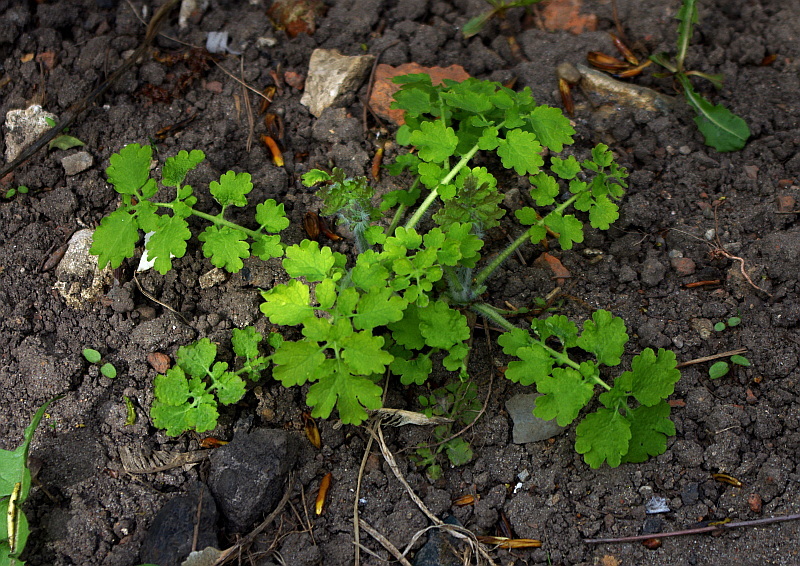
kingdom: Plantae
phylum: Tracheophyta
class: Magnoliopsida
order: Ranunculales
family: Papaveraceae
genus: Chelidonium
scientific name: Chelidonium majus
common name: Greater celandine
